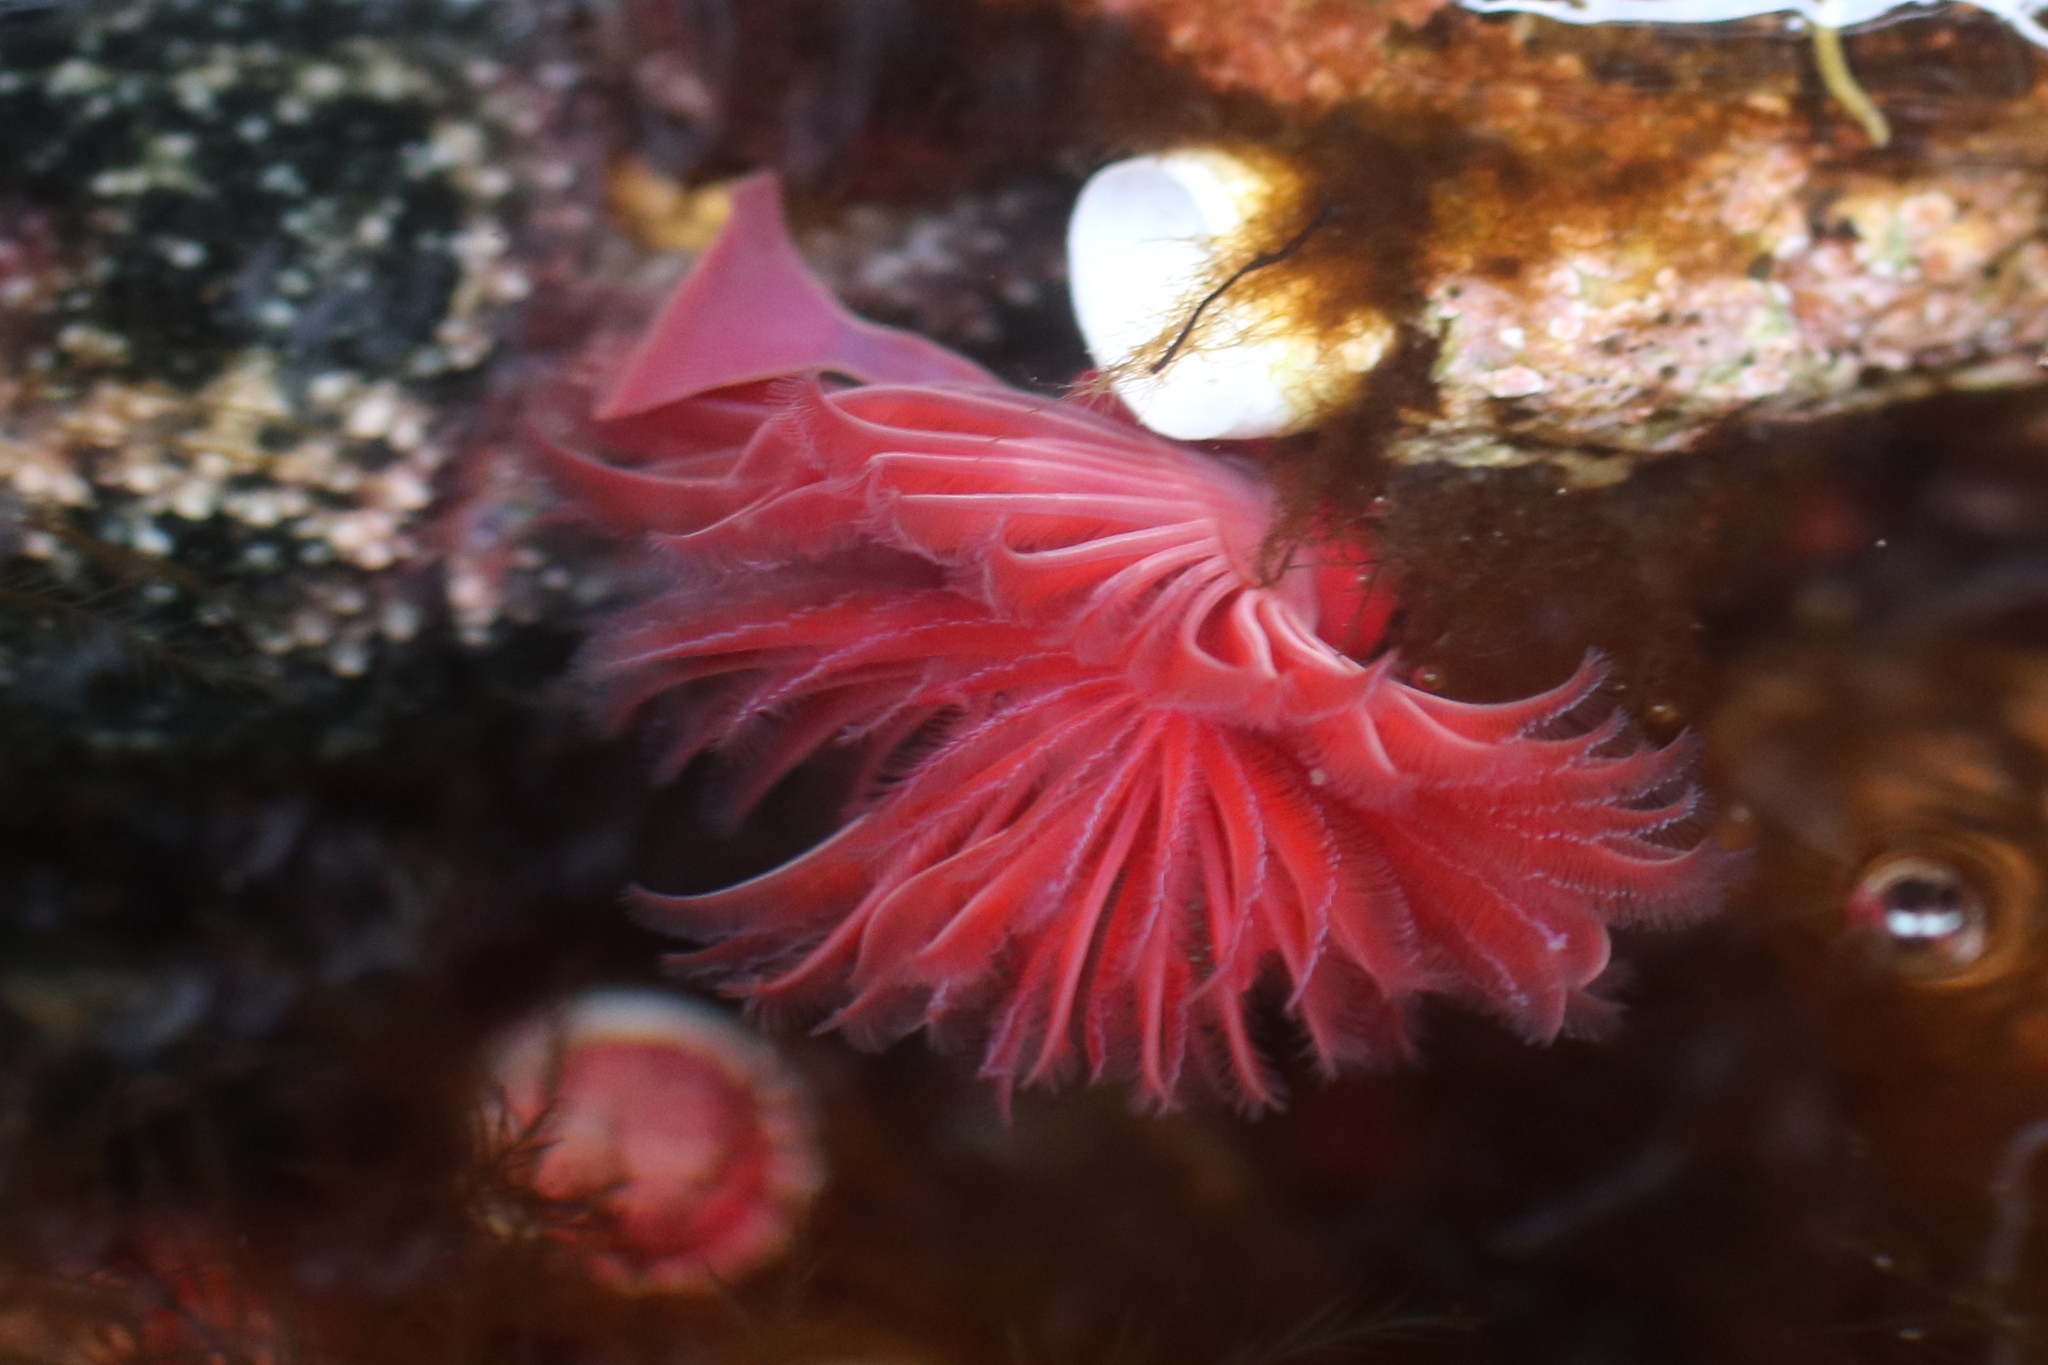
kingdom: Animalia
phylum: Annelida
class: Polychaeta
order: Sabellida
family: Serpulidae
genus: Serpula
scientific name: Serpula columbiana
